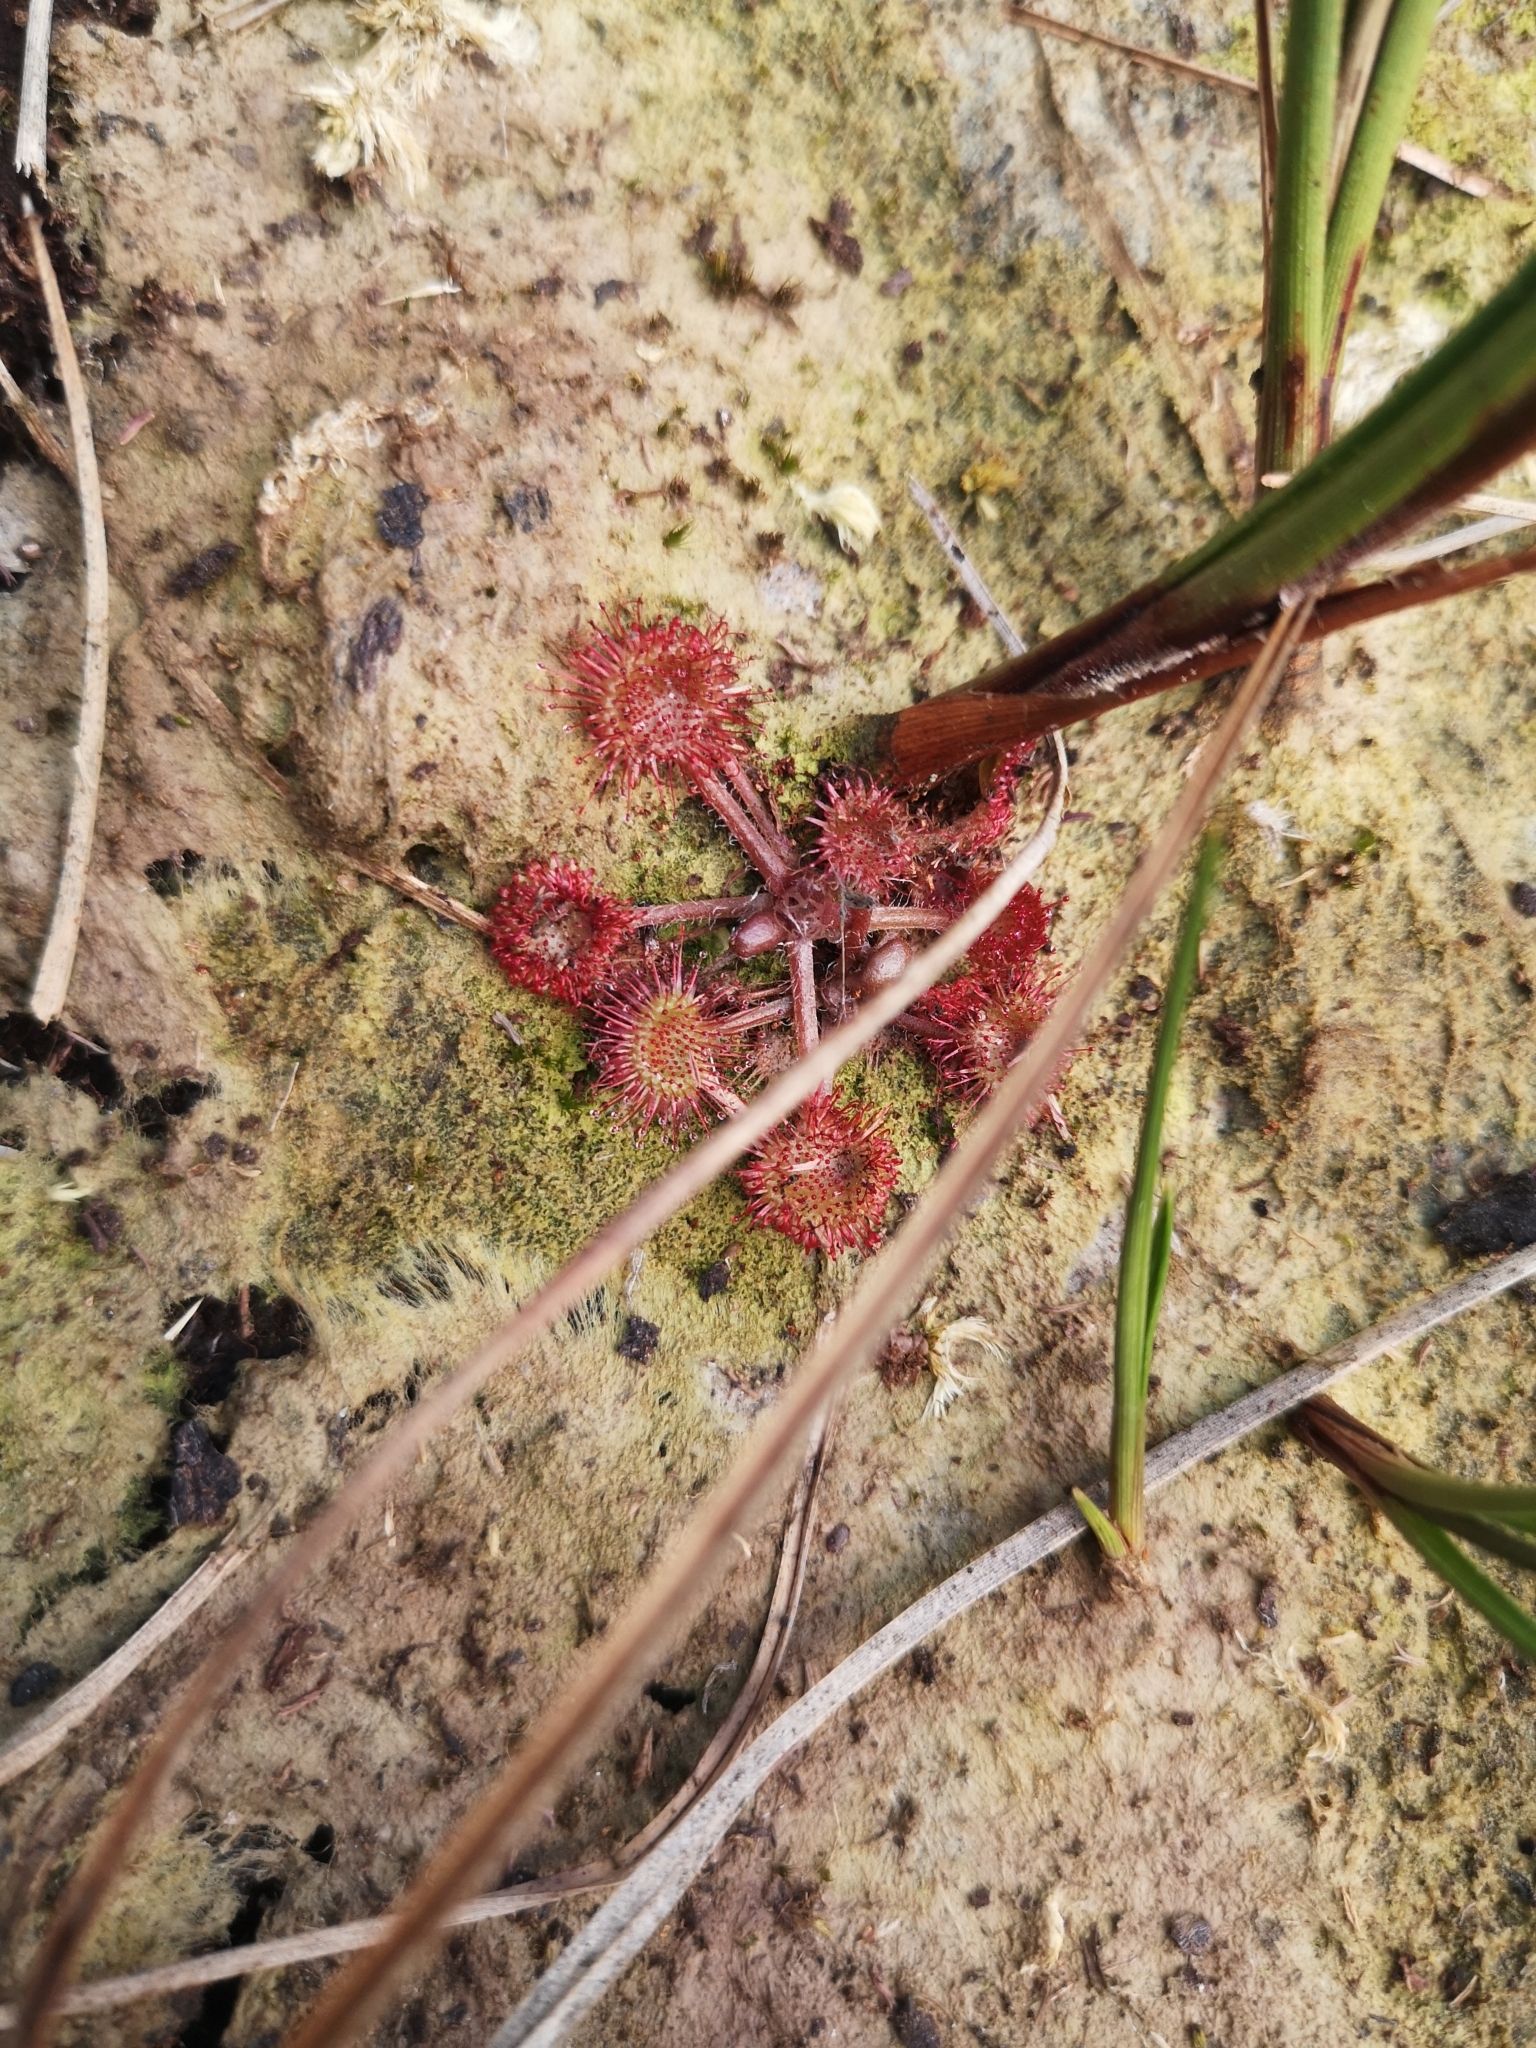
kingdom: Plantae
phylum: Tracheophyta
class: Magnoliopsida
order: Caryophyllales
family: Droseraceae
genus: Drosera
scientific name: Drosera rotundifolia
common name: Round-leaved sundew
